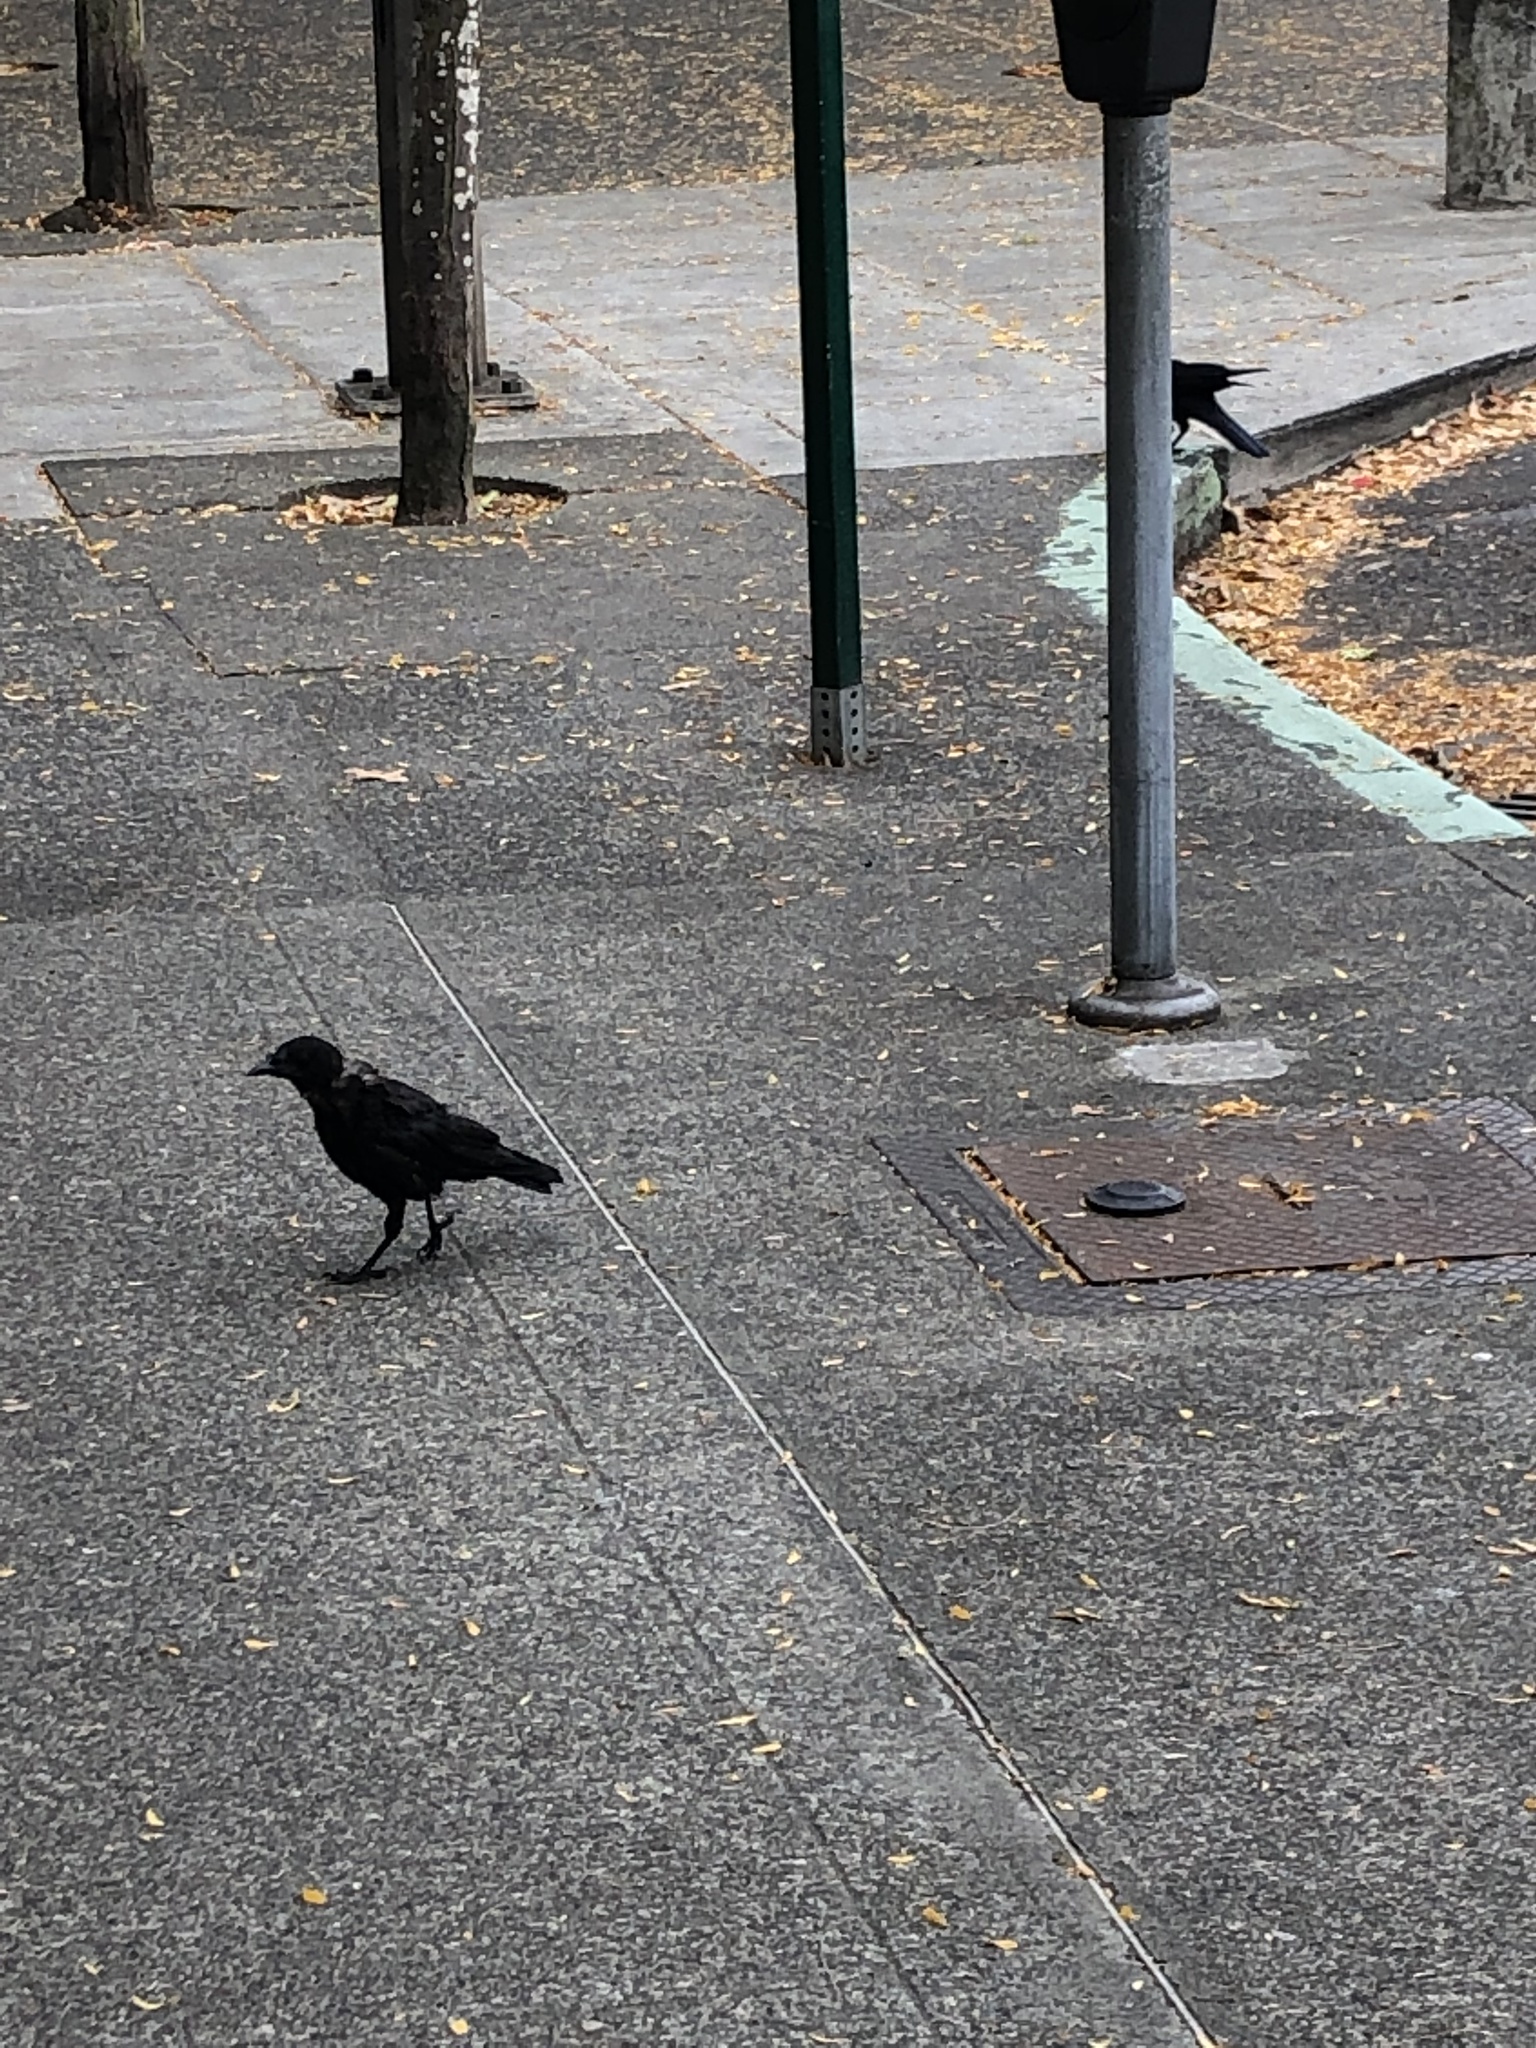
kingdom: Animalia
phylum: Chordata
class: Aves
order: Passeriformes
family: Corvidae
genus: Corvus
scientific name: Corvus brachyrhynchos
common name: American crow
